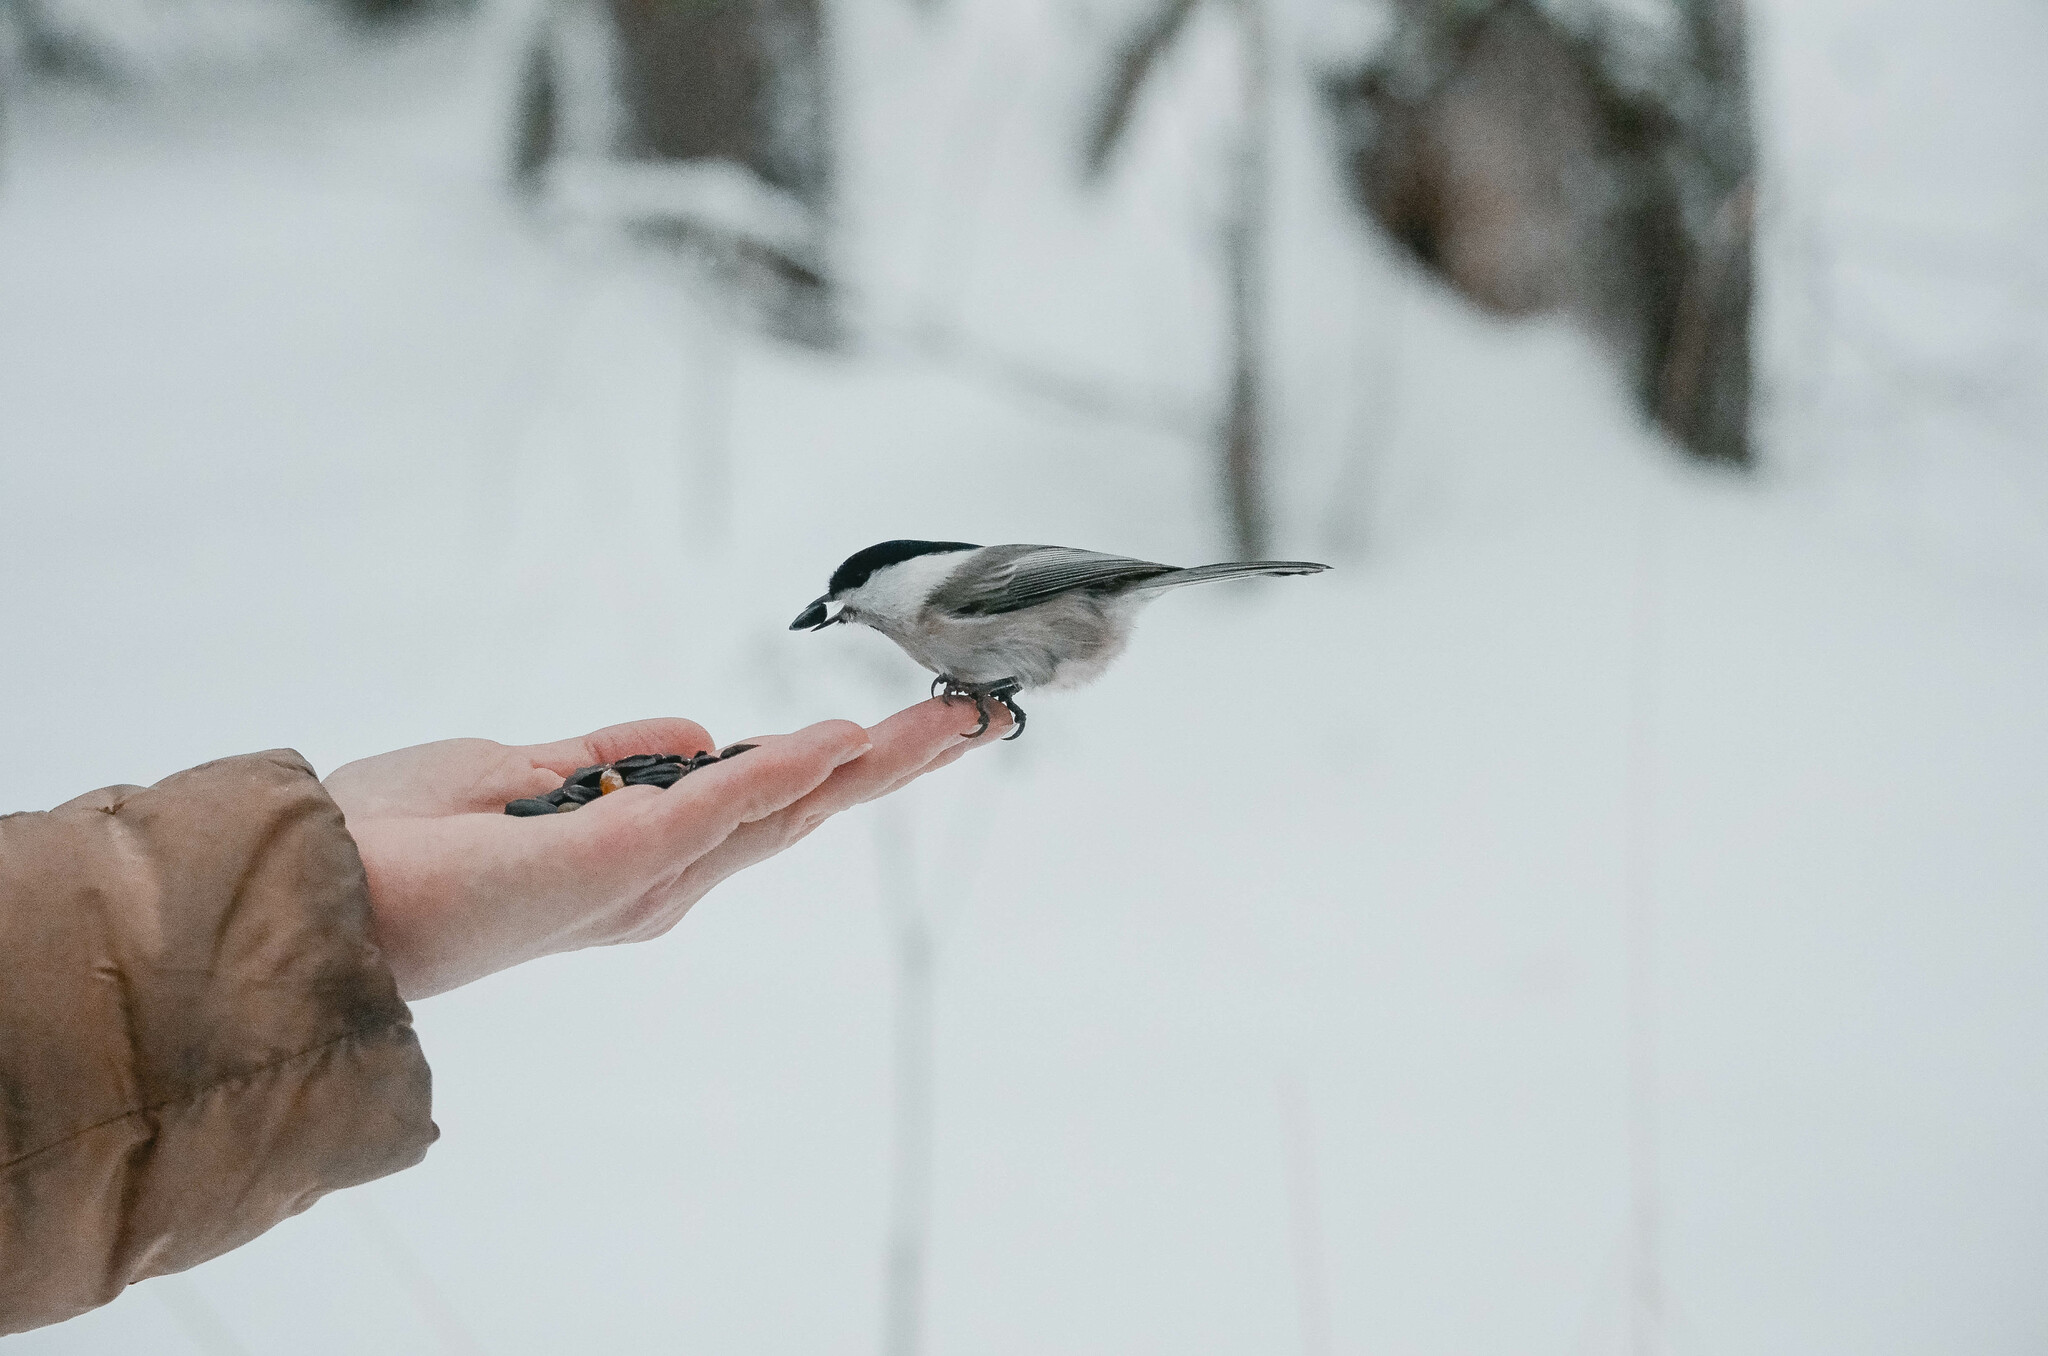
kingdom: Animalia
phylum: Chordata
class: Aves
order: Passeriformes
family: Paridae
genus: Poecile
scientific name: Poecile montanus
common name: Willow tit
